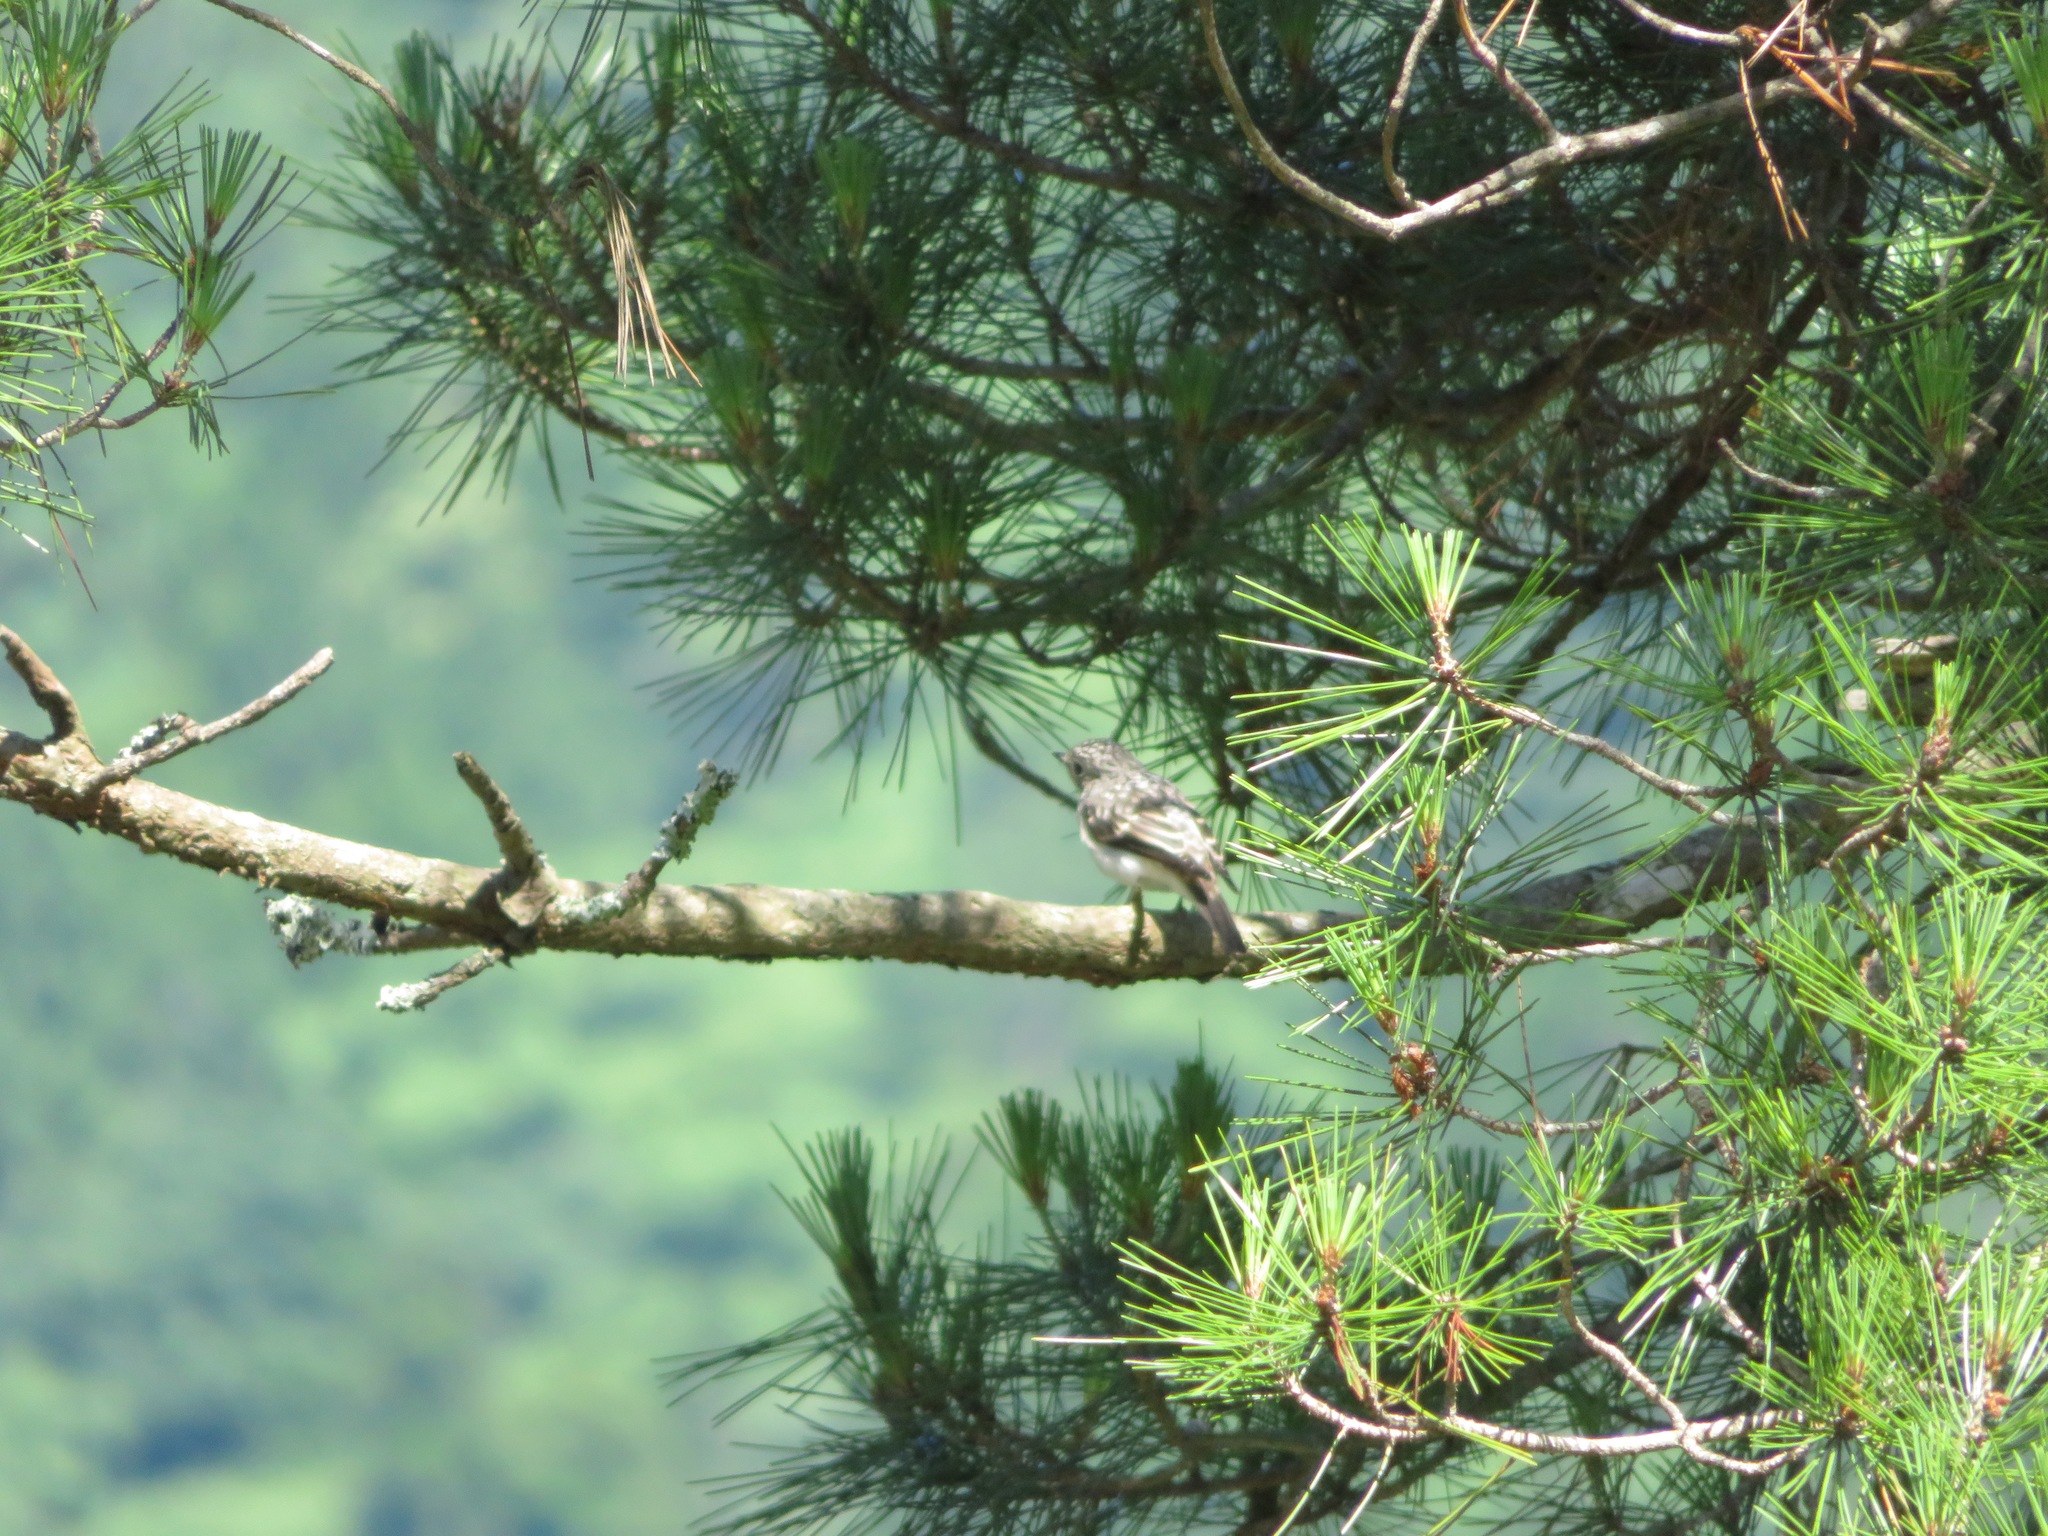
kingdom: Animalia
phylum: Chordata
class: Aves
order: Passeriformes
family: Muscicapidae
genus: Muscicapa
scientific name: Muscicapa latirostris
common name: Asian brown flycatcher
